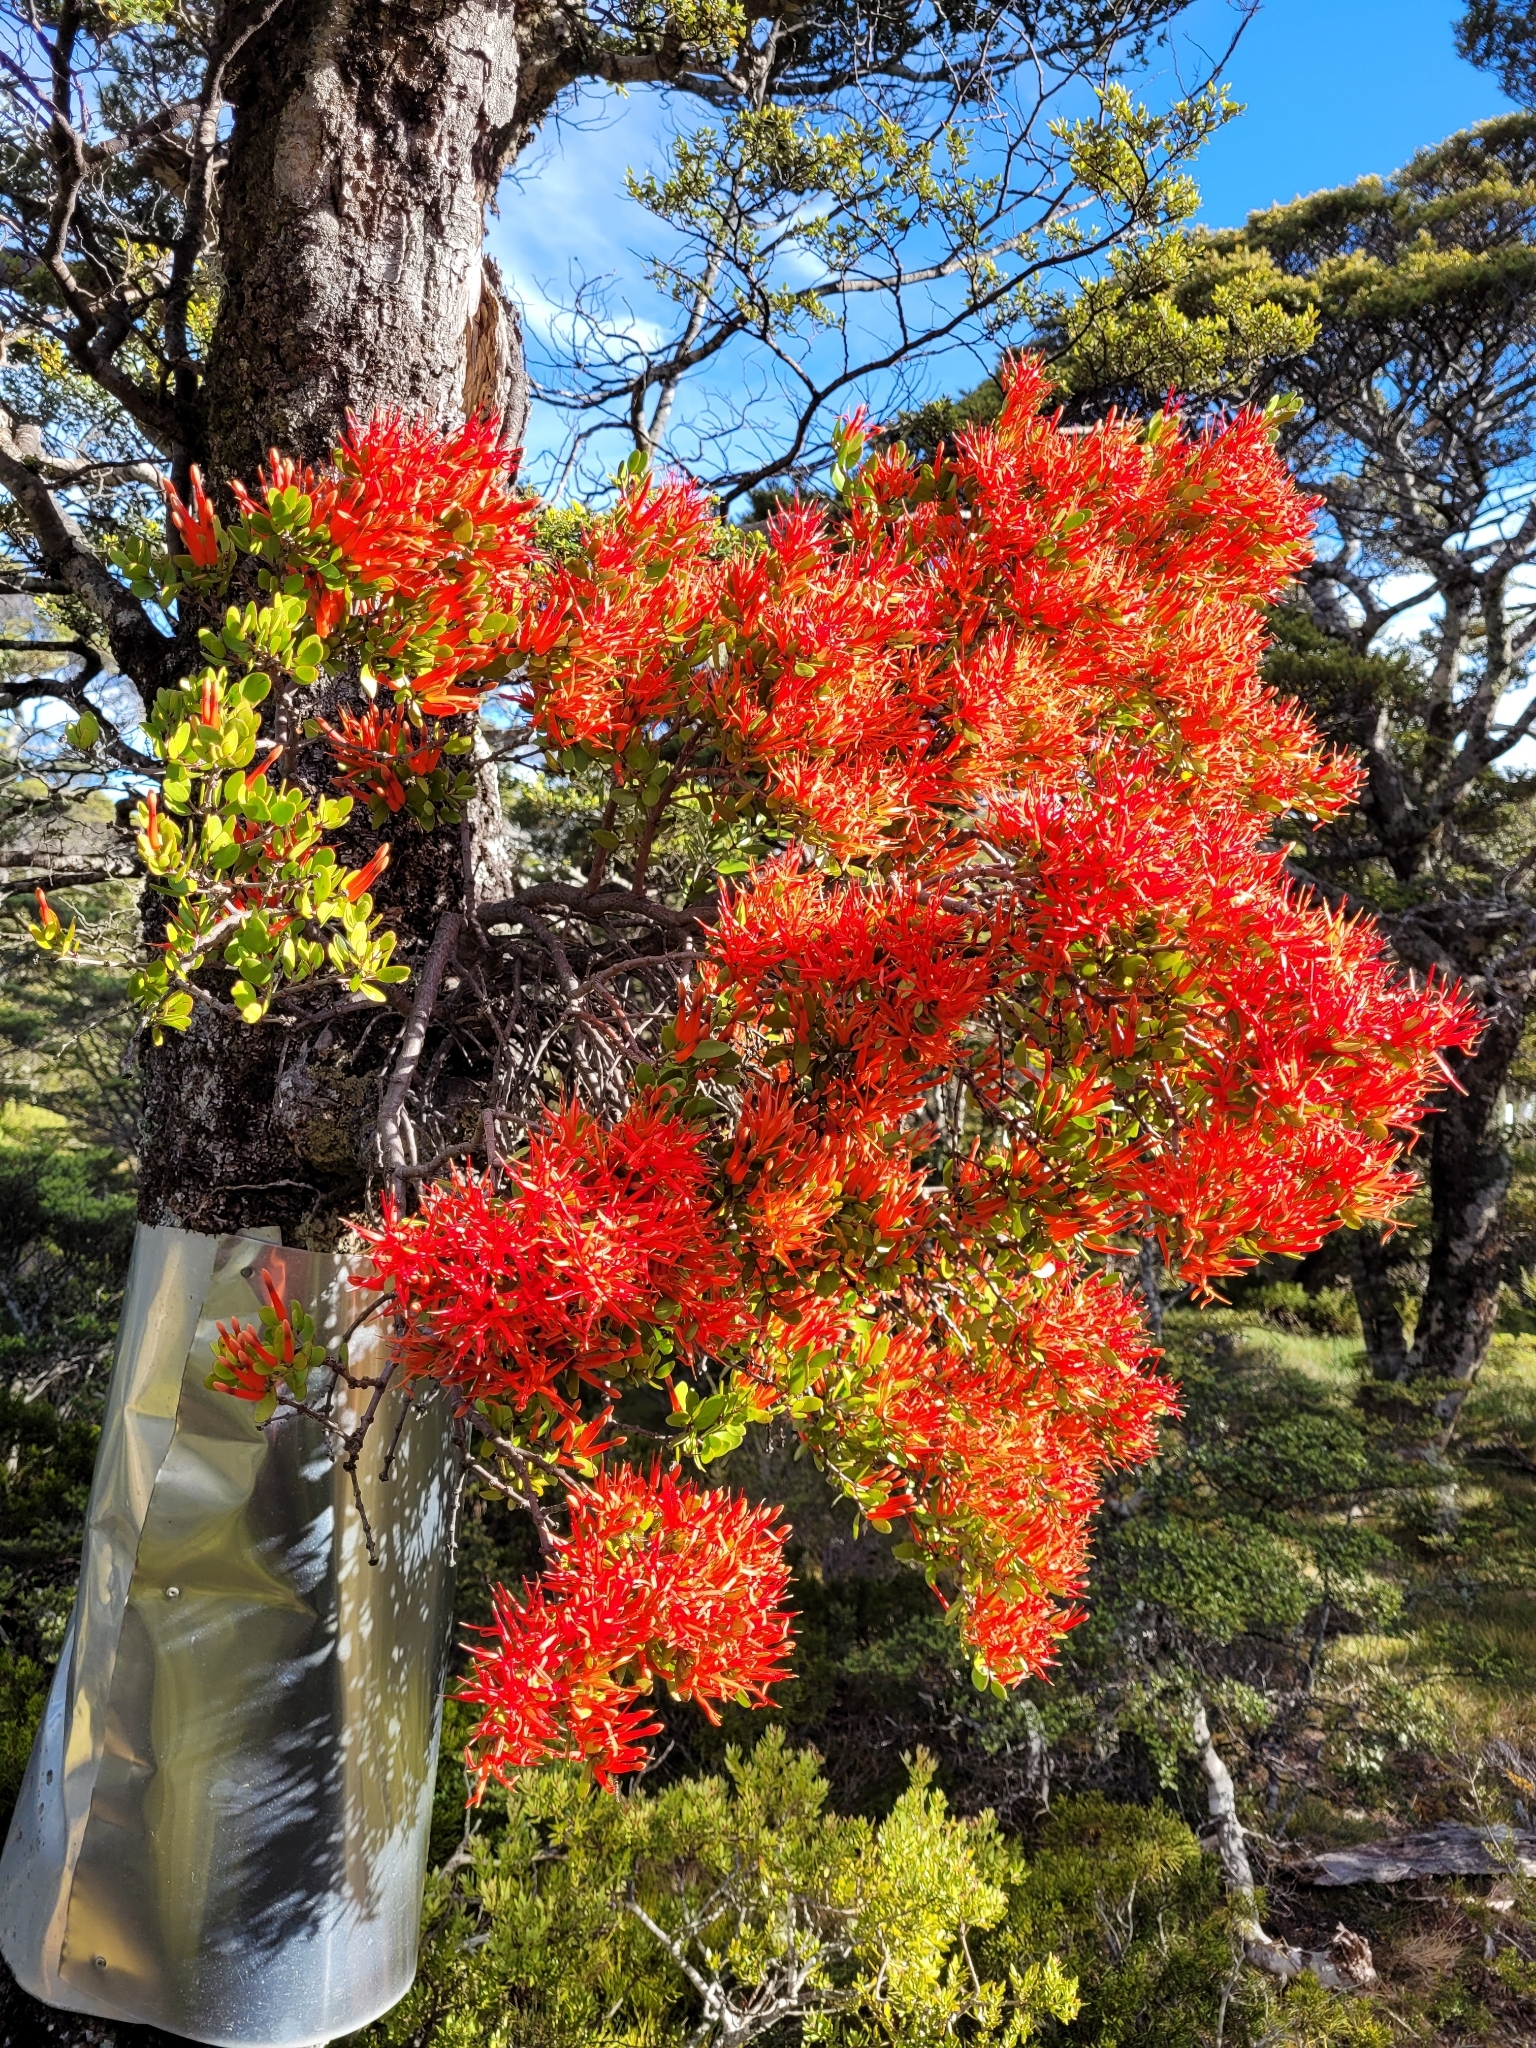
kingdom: Plantae
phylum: Tracheophyta
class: Magnoliopsida
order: Santalales
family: Loranthaceae
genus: Peraxilla
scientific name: Peraxilla tetrapetala
